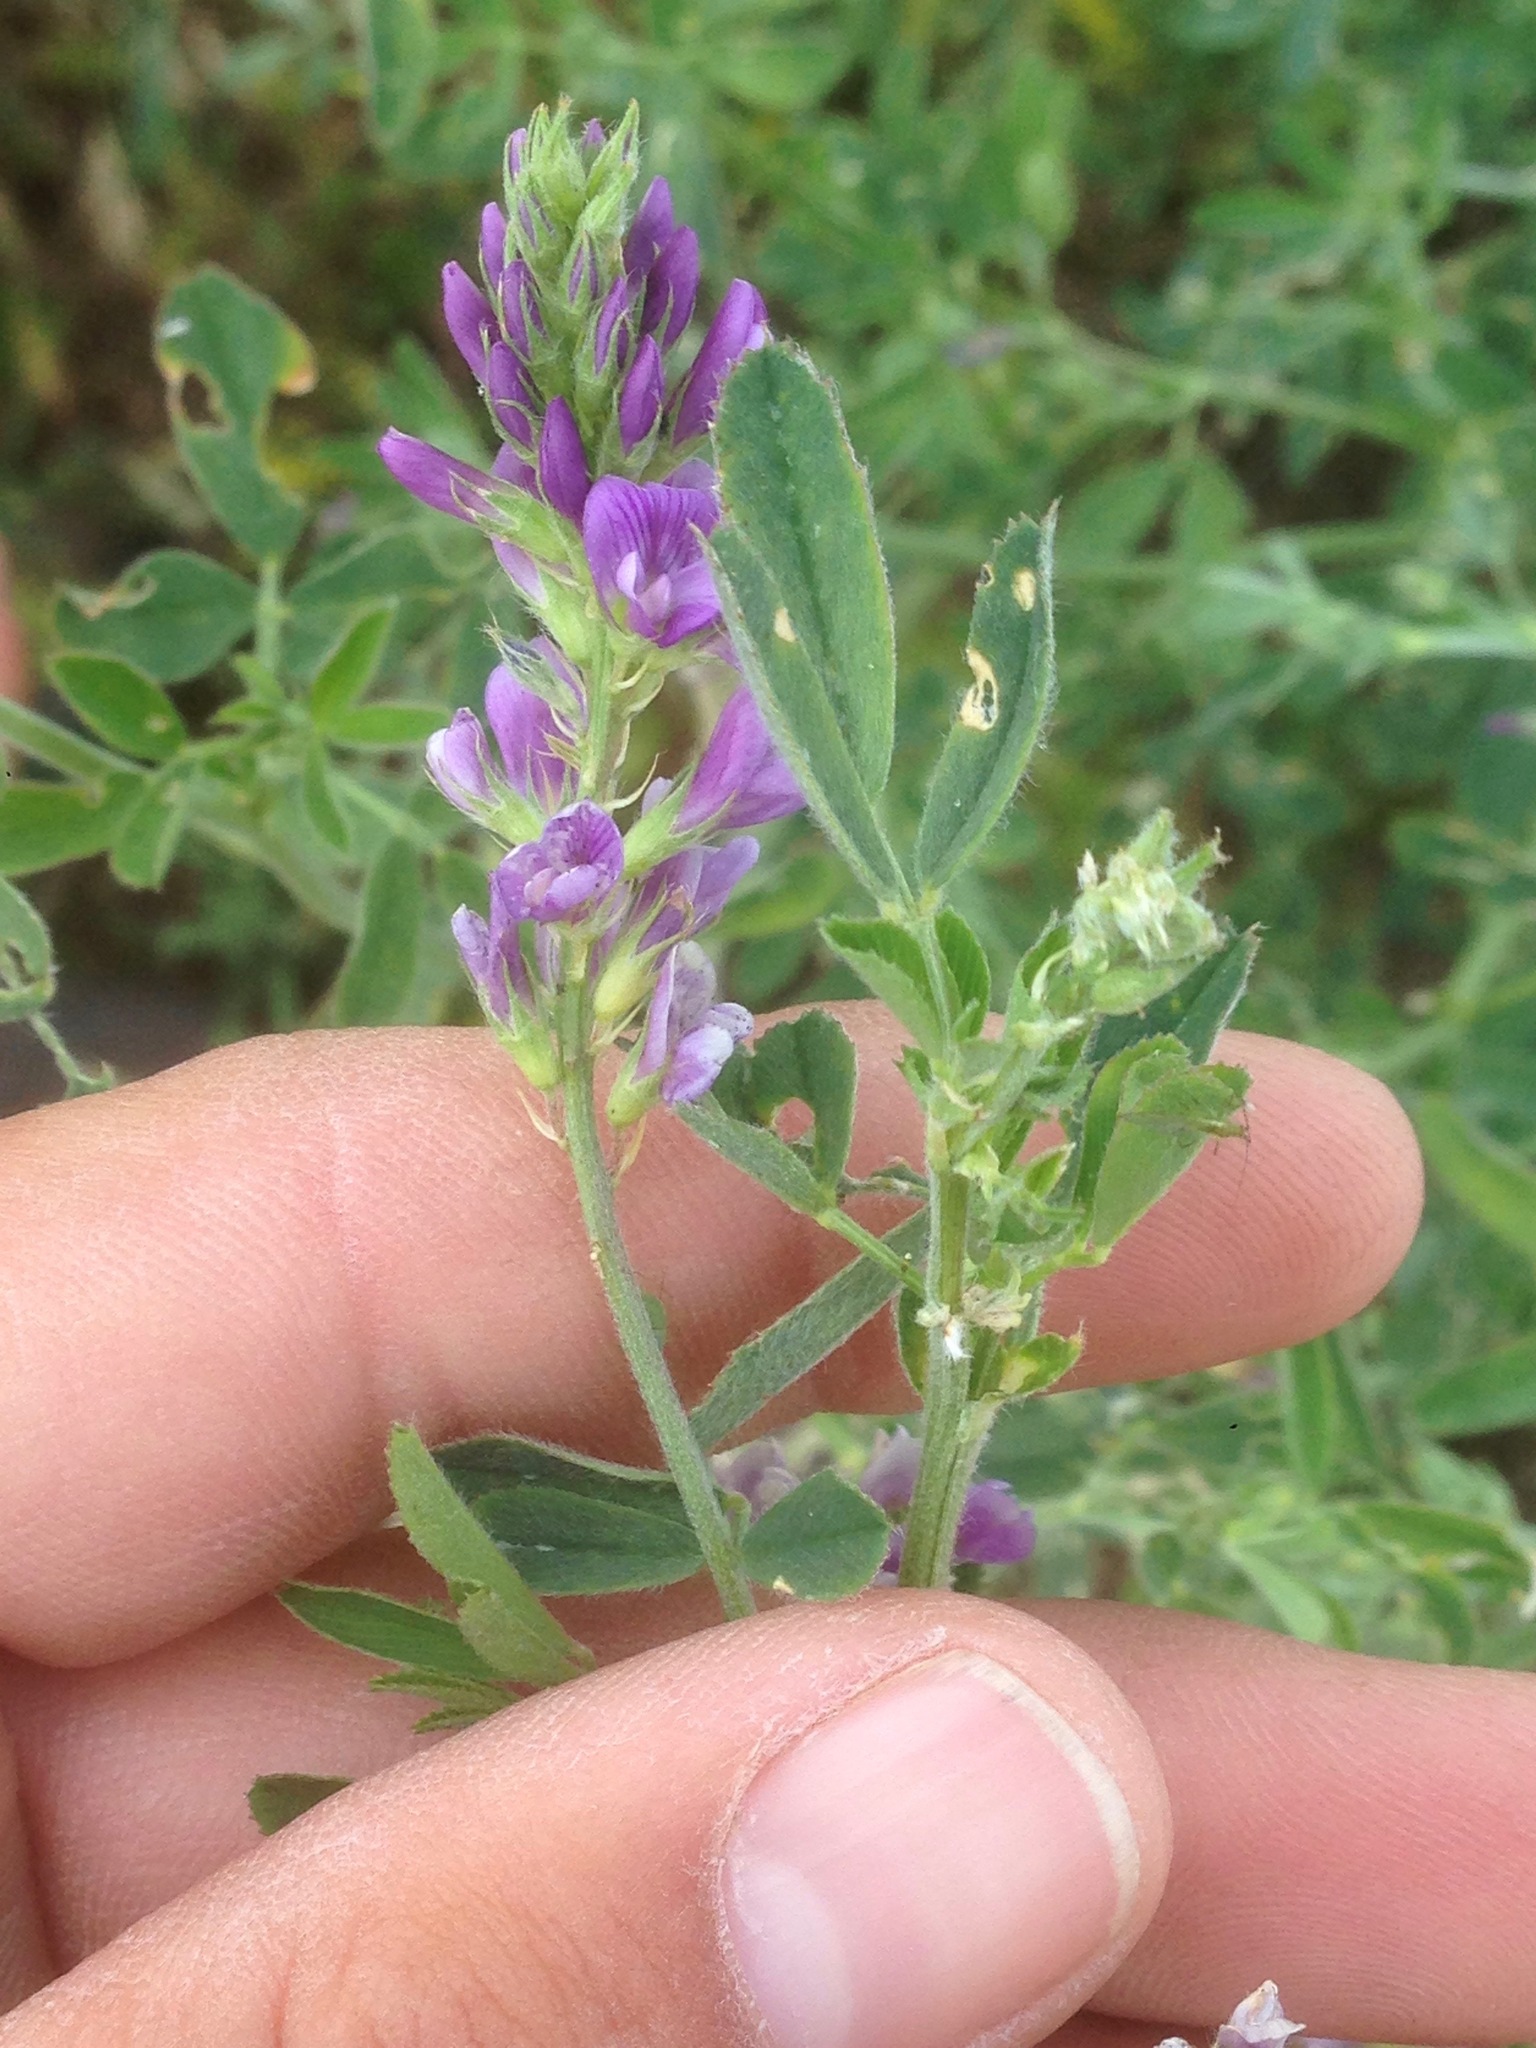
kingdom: Plantae
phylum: Tracheophyta
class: Magnoliopsida
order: Fabales
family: Fabaceae
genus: Medicago
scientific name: Medicago sativa
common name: Alfalfa
